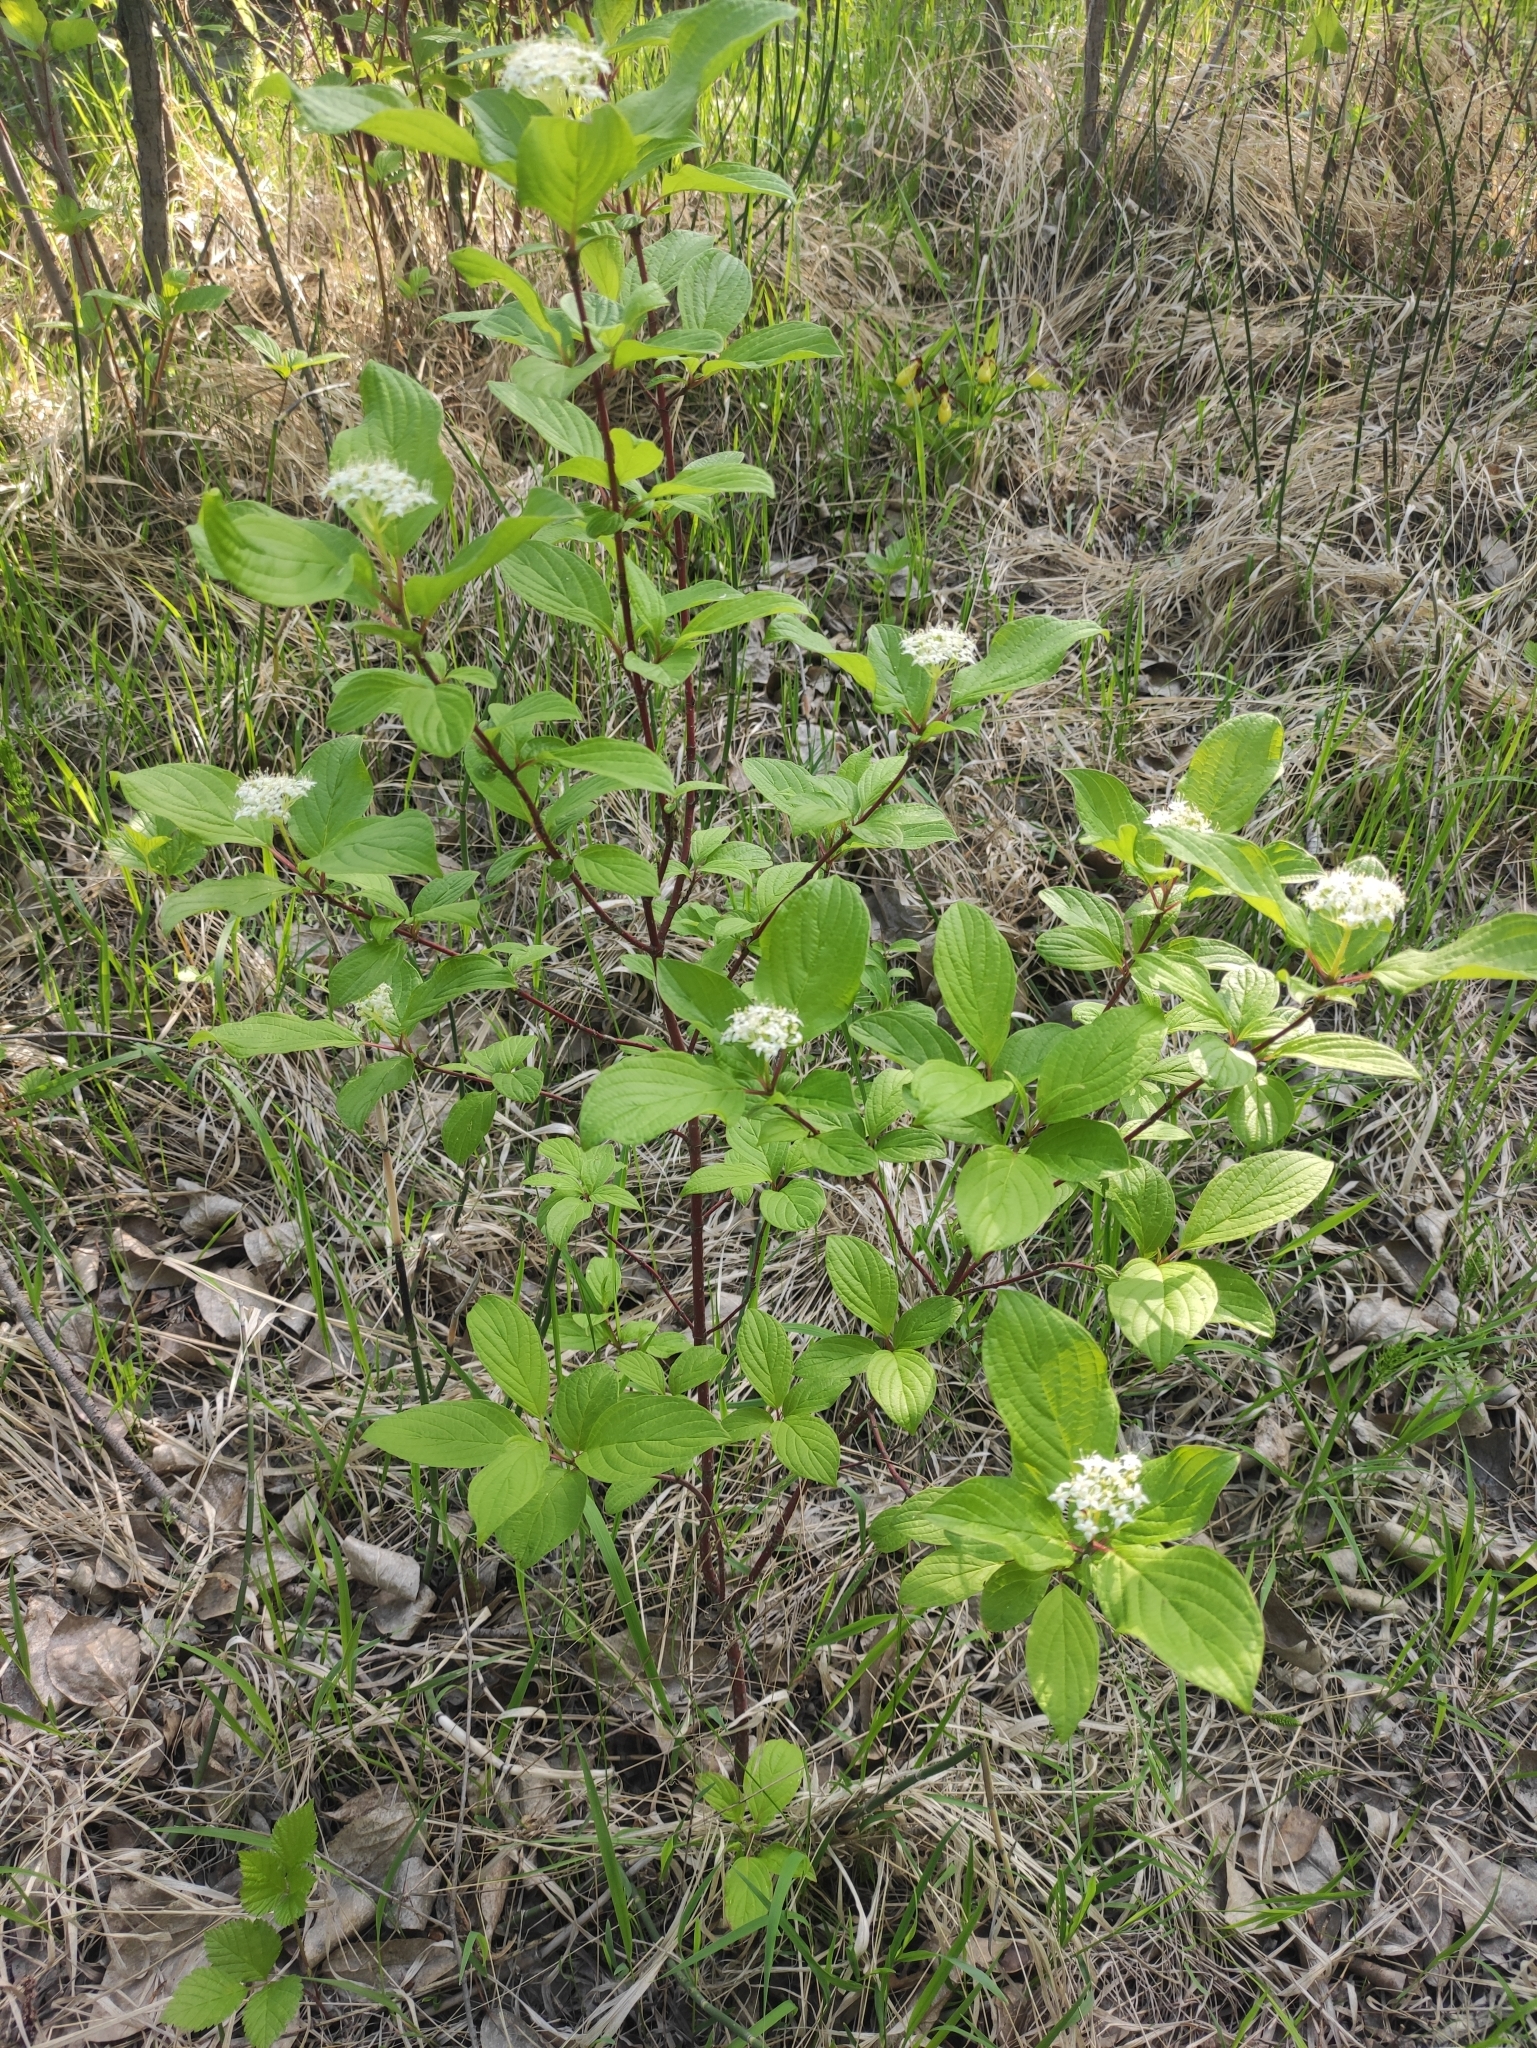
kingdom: Plantae
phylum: Tracheophyta
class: Magnoliopsida
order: Cornales
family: Cornaceae
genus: Cornus
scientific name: Cornus alba
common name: White dogwood
